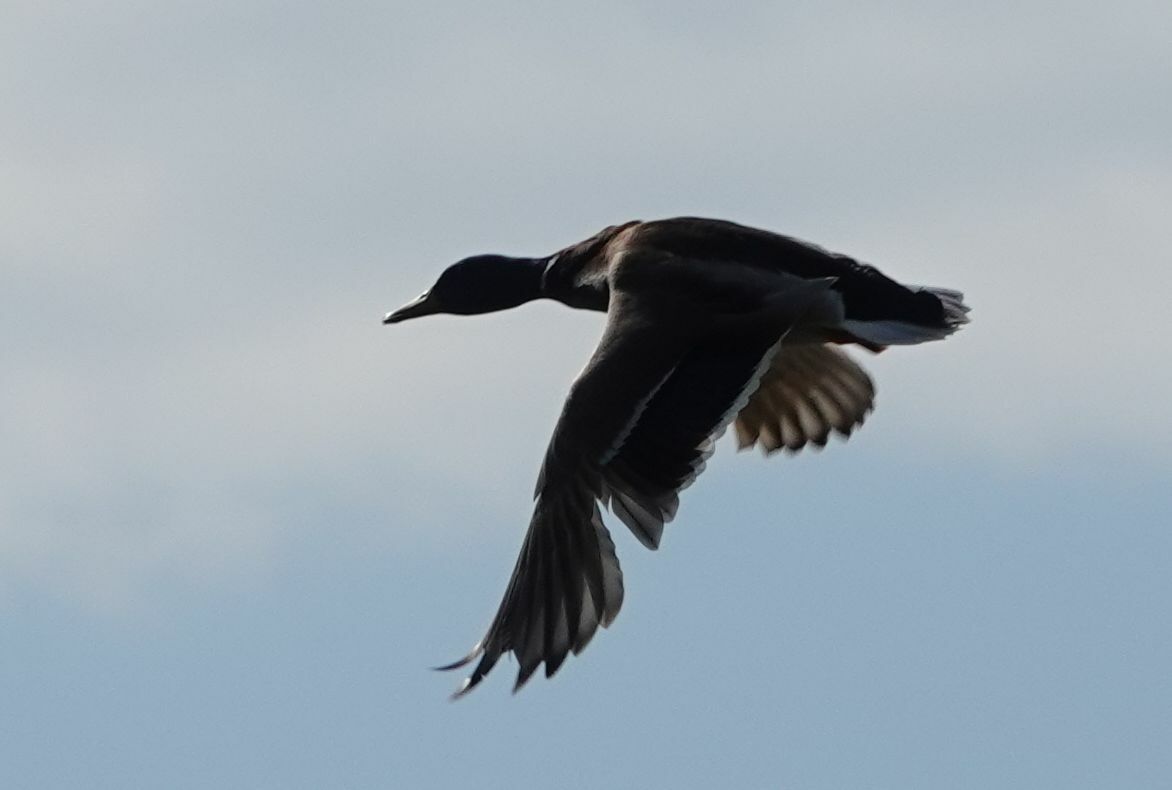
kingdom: Animalia
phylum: Chordata
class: Aves
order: Anseriformes
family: Anatidae
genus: Anas
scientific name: Anas platyrhynchos
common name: Mallard
